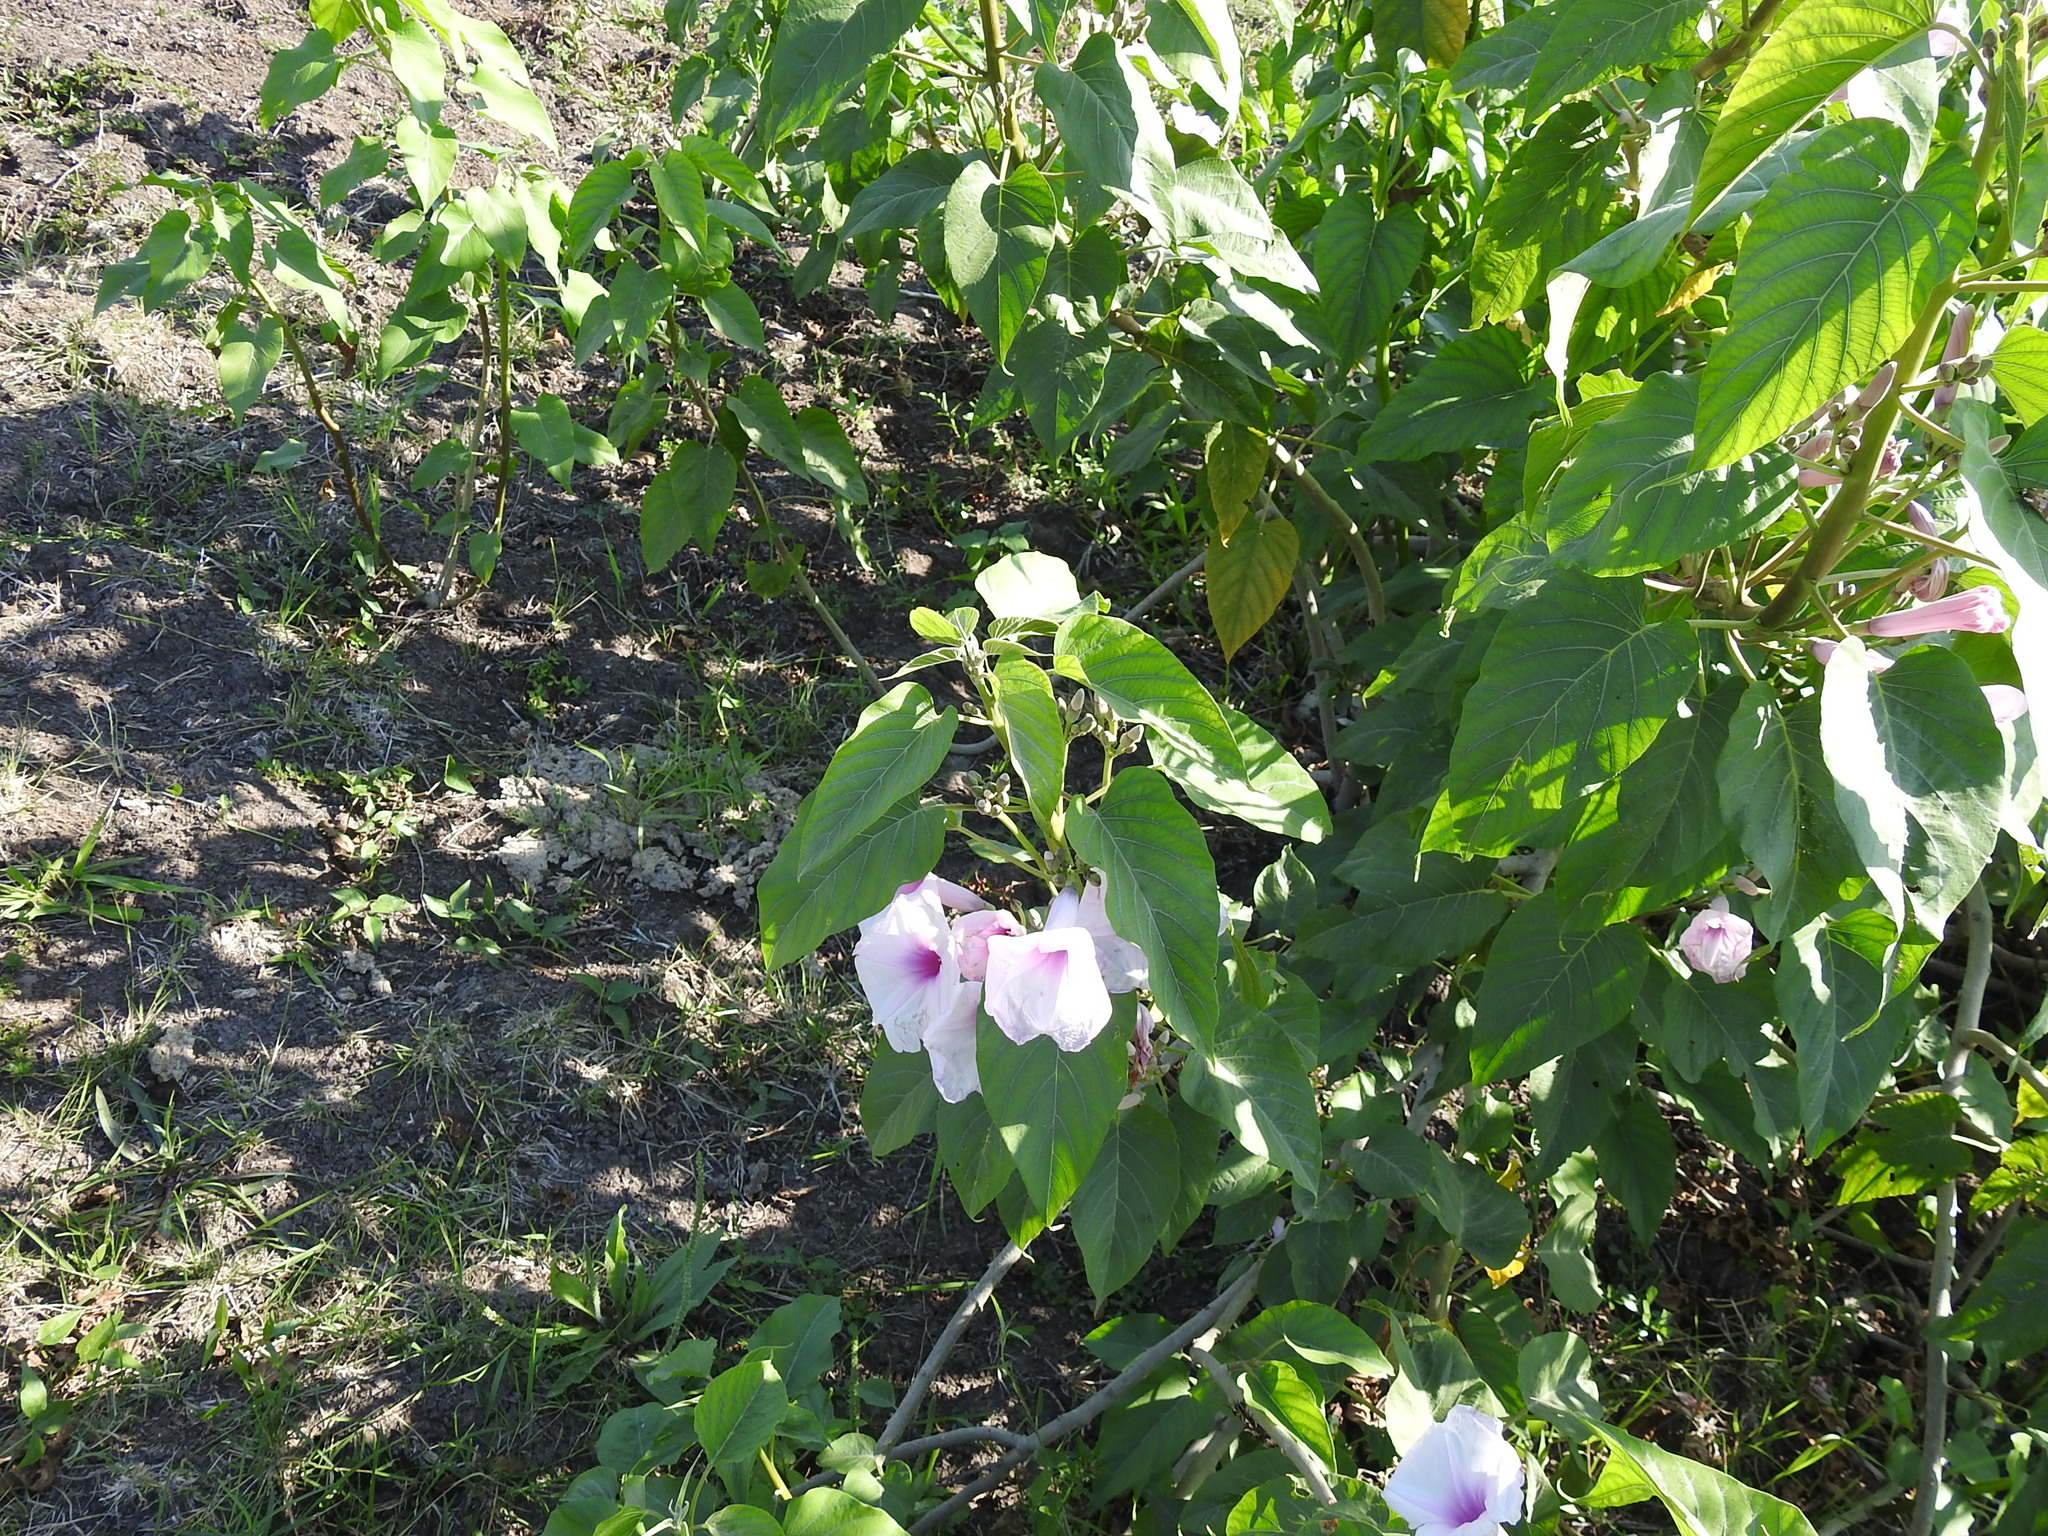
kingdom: Plantae
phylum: Tracheophyta
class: Magnoliopsida
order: Solanales
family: Convolvulaceae
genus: Ipomoea
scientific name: Ipomoea carnea
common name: Morning-glory
